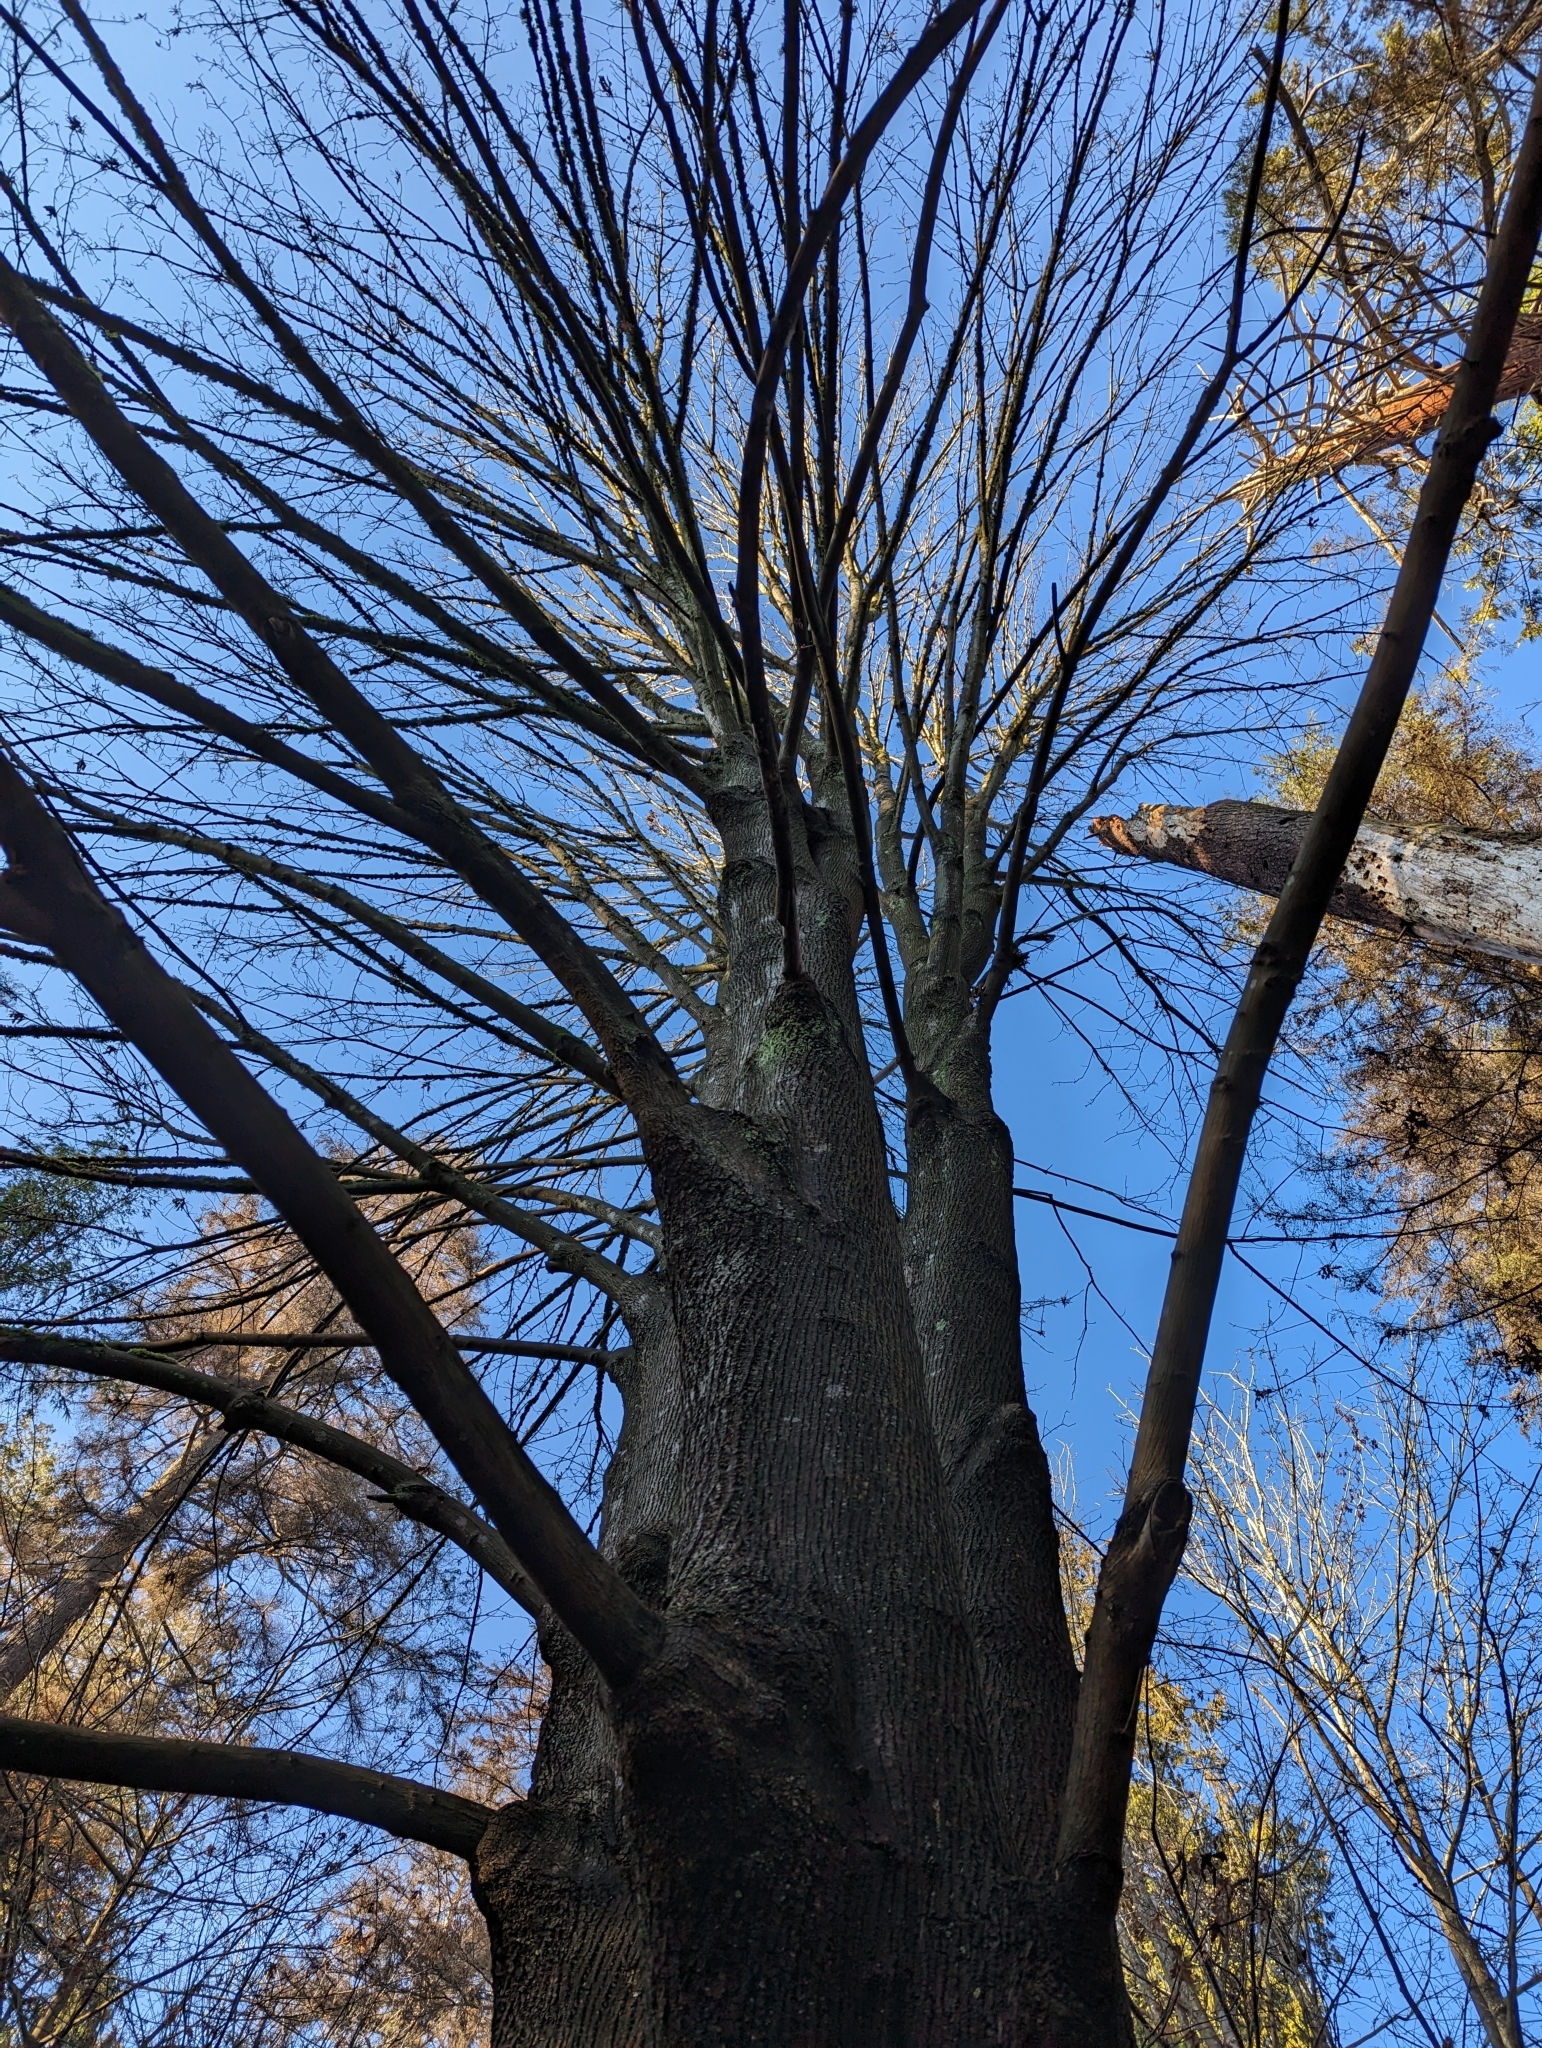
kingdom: Plantae
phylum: Tracheophyta
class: Magnoliopsida
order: Sapindales
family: Sapindaceae
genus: Acer
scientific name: Acer macrophyllum
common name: Oregon maple
